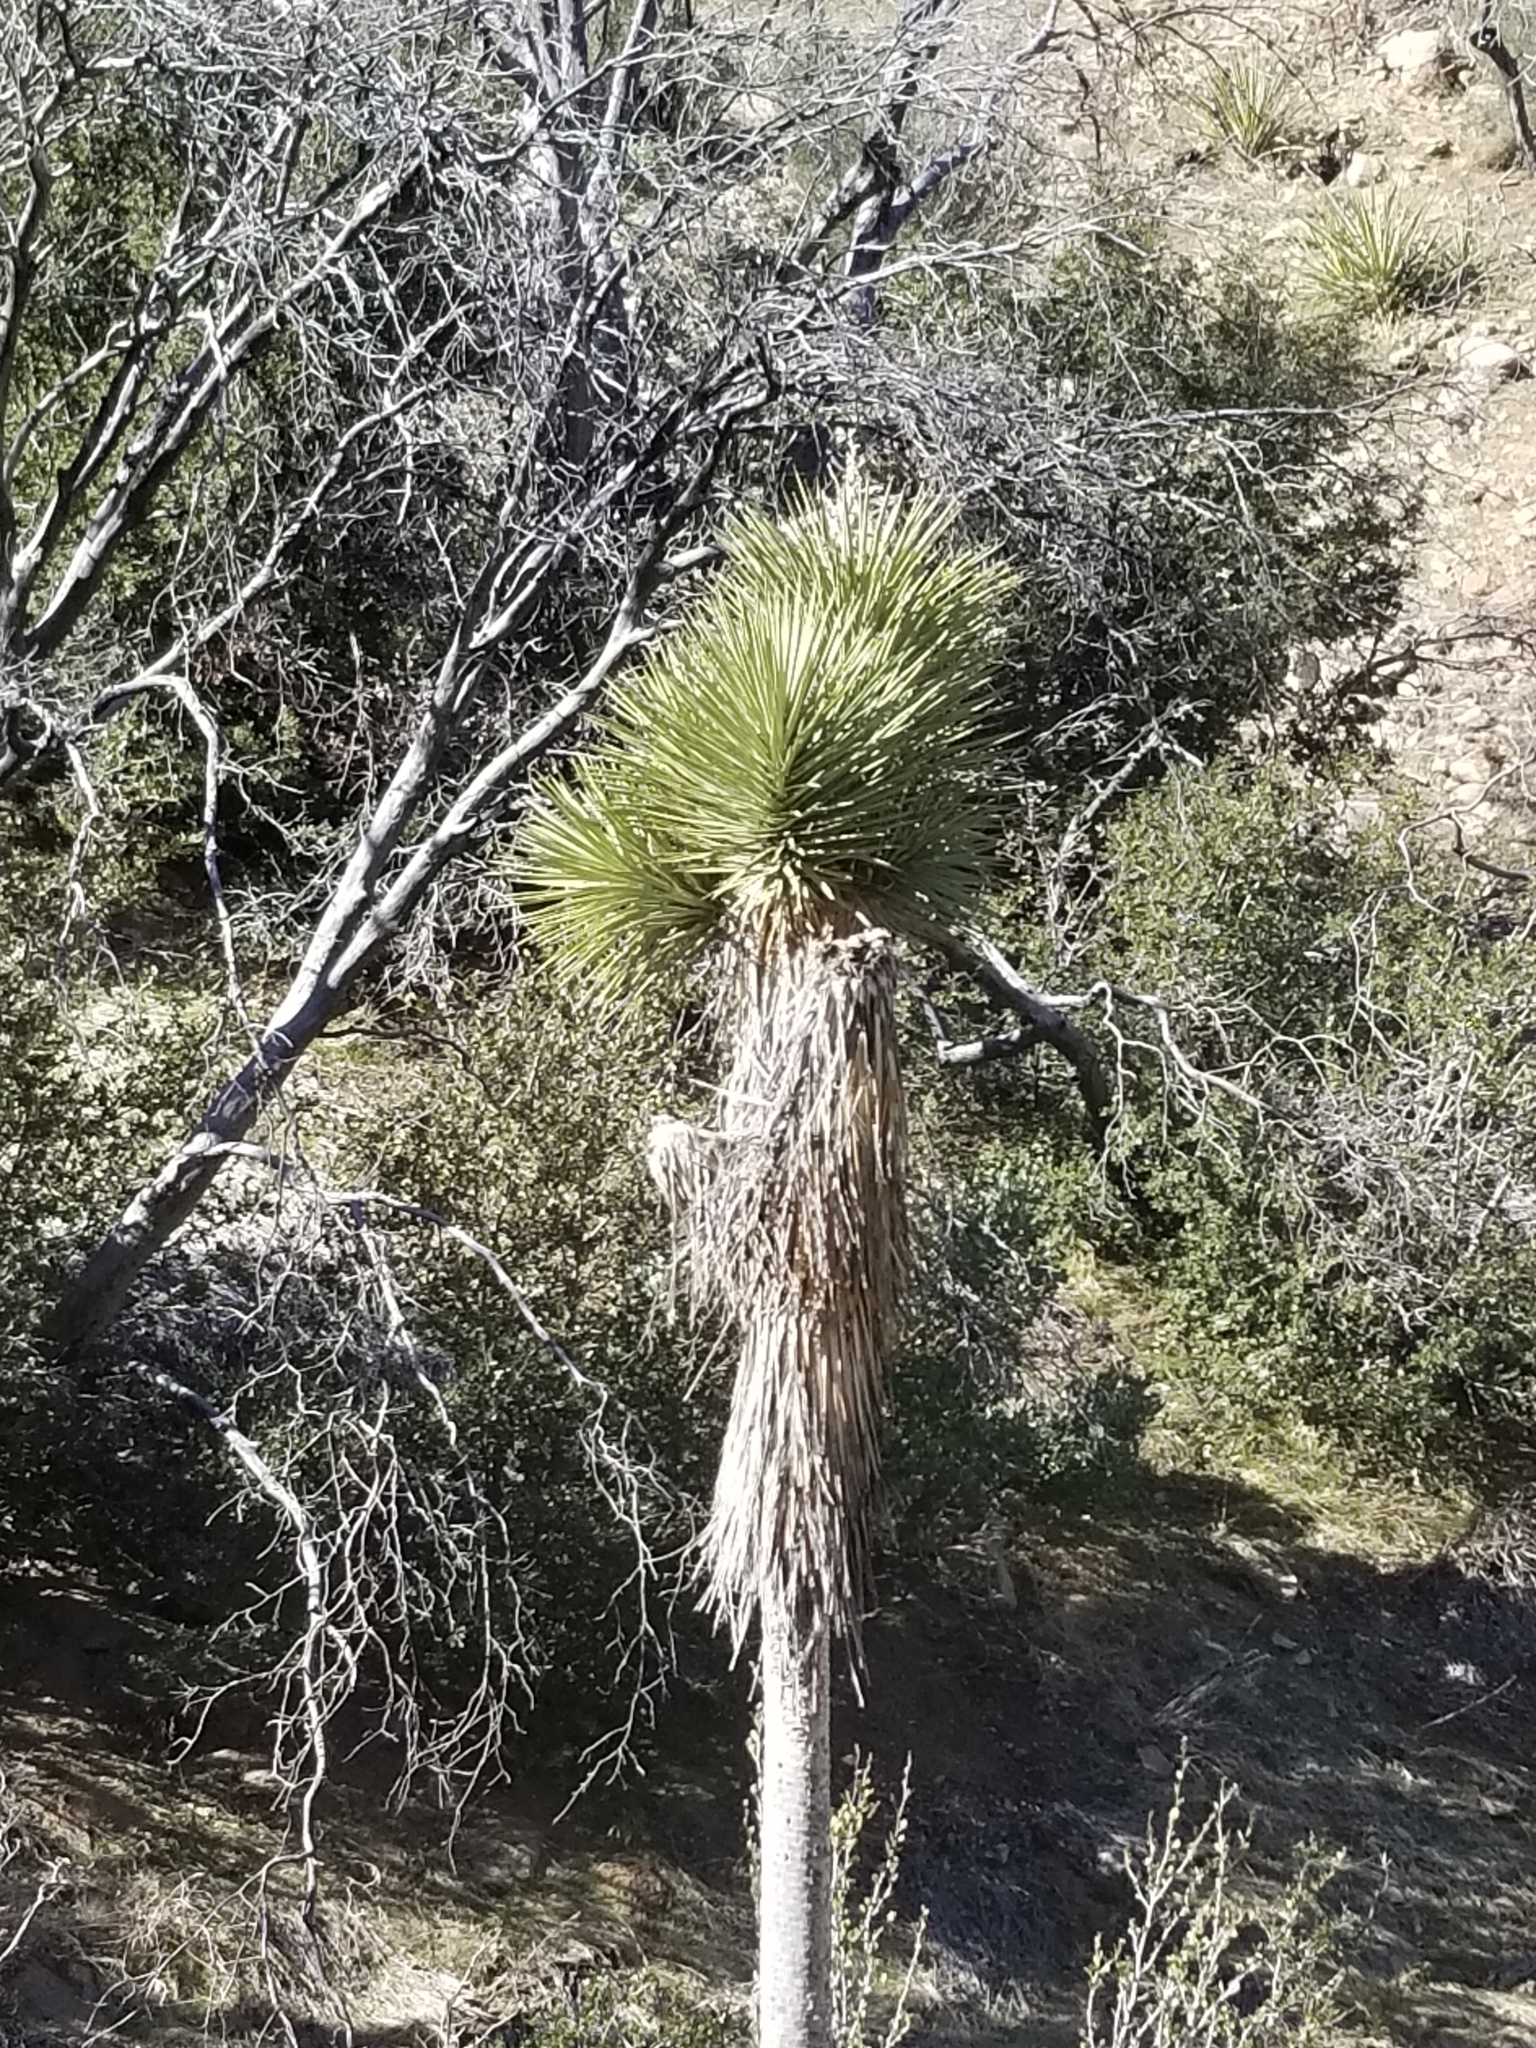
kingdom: Plantae
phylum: Tracheophyta
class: Liliopsida
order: Asparagales
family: Asparagaceae
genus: Yucca
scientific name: Yucca brevifolia
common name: Joshua tree
